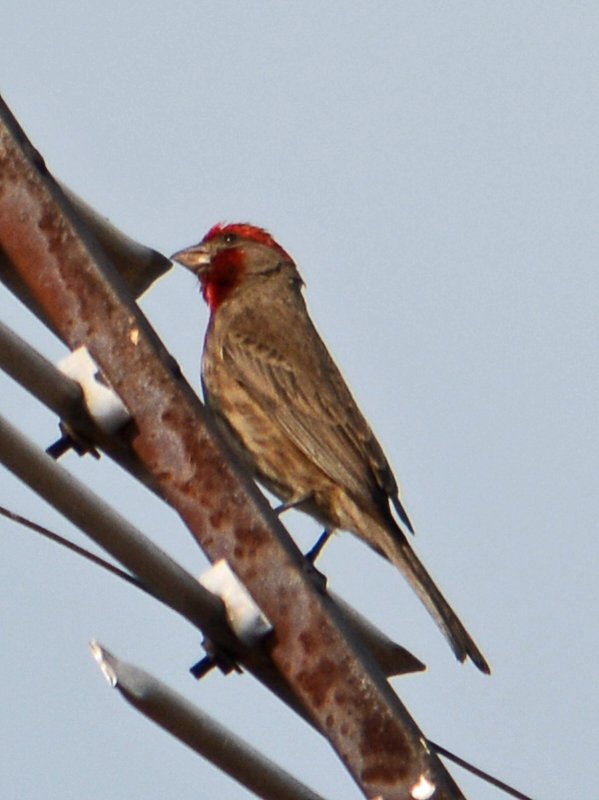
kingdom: Animalia
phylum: Chordata
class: Aves
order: Passeriformes
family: Fringillidae
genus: Haemorhous
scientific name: Haemorhous mexicanus
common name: House finch
